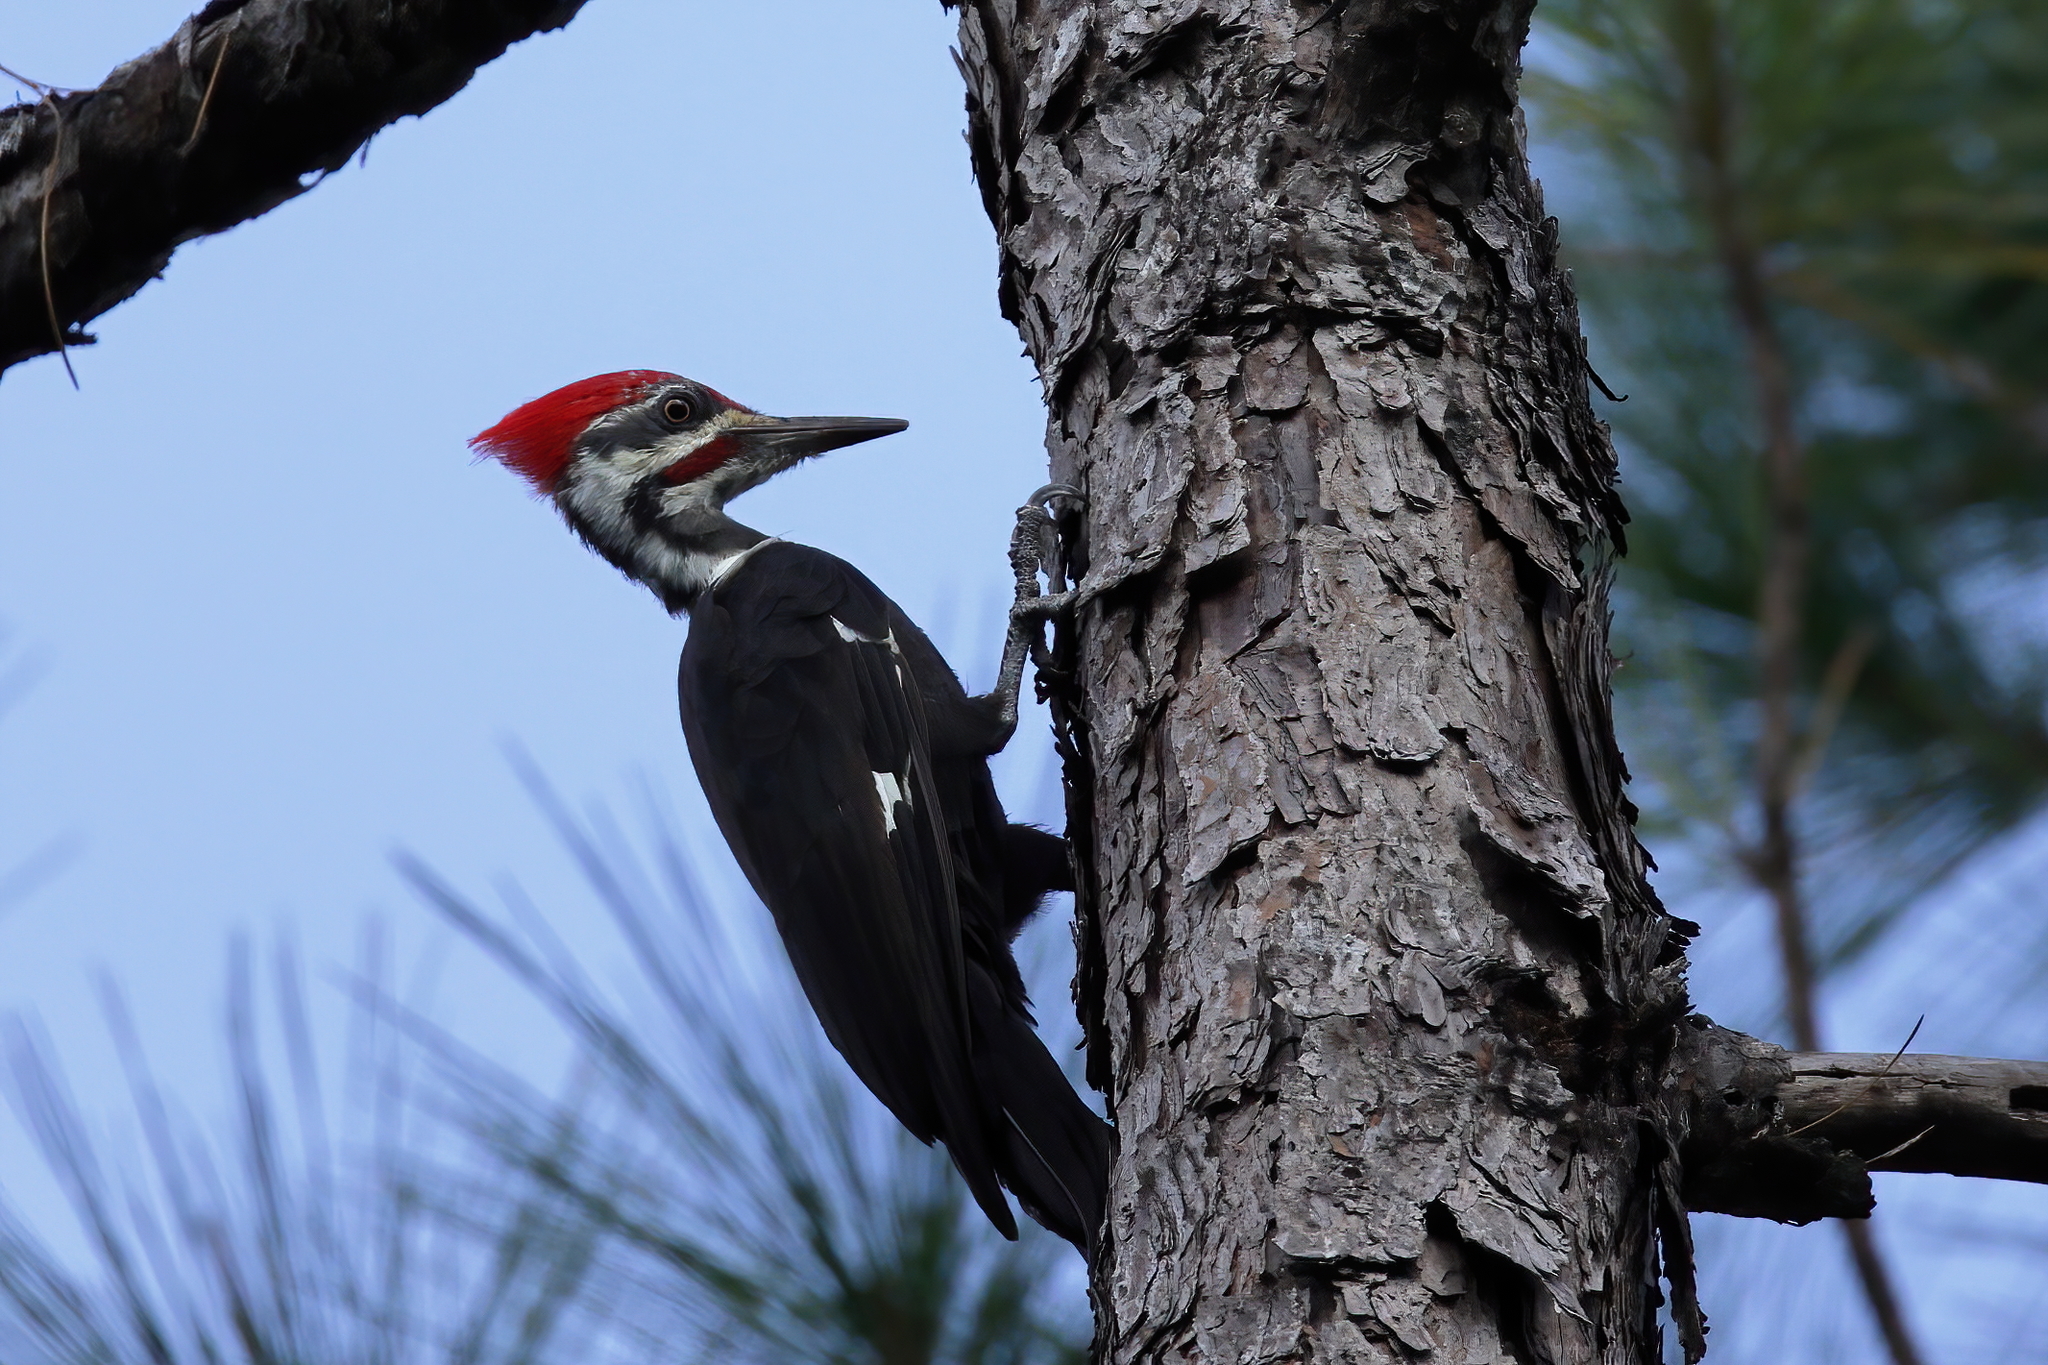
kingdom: Animalia
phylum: Chordata
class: Aves
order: Piciformes
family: Picidae
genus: Dryocopus
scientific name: Dryocopus pileatus
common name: Pileated woodpecker
